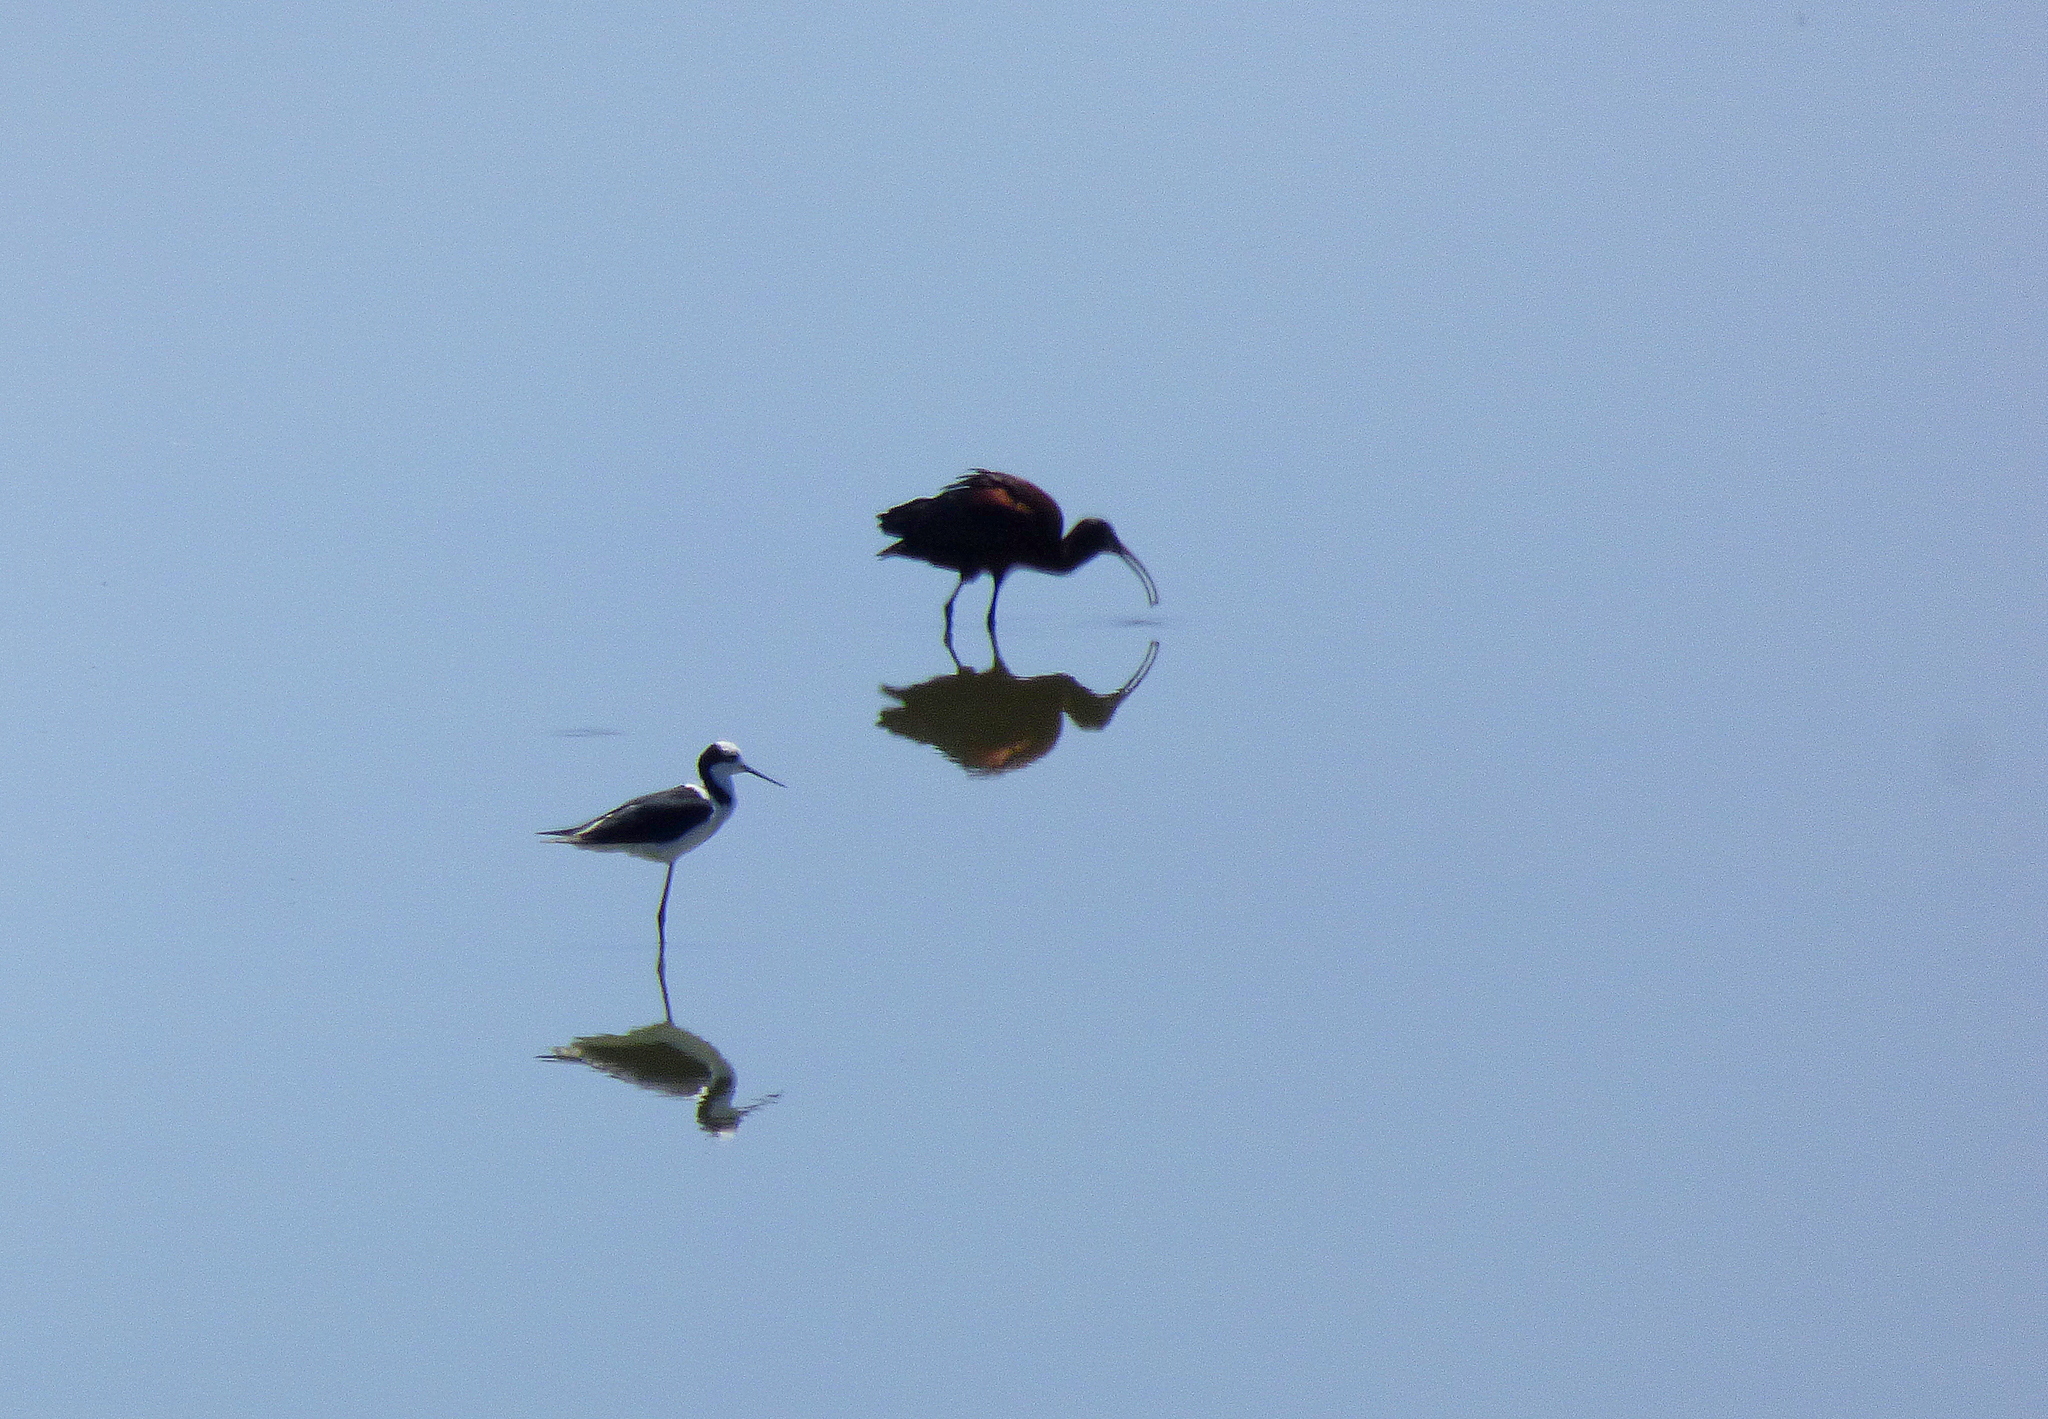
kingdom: Animalia
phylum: Chordata
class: Aves
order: Charadriiformes
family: Recurvirostridae
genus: Himantopus
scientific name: Himantopus mexicanus
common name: Black-necked stilt
